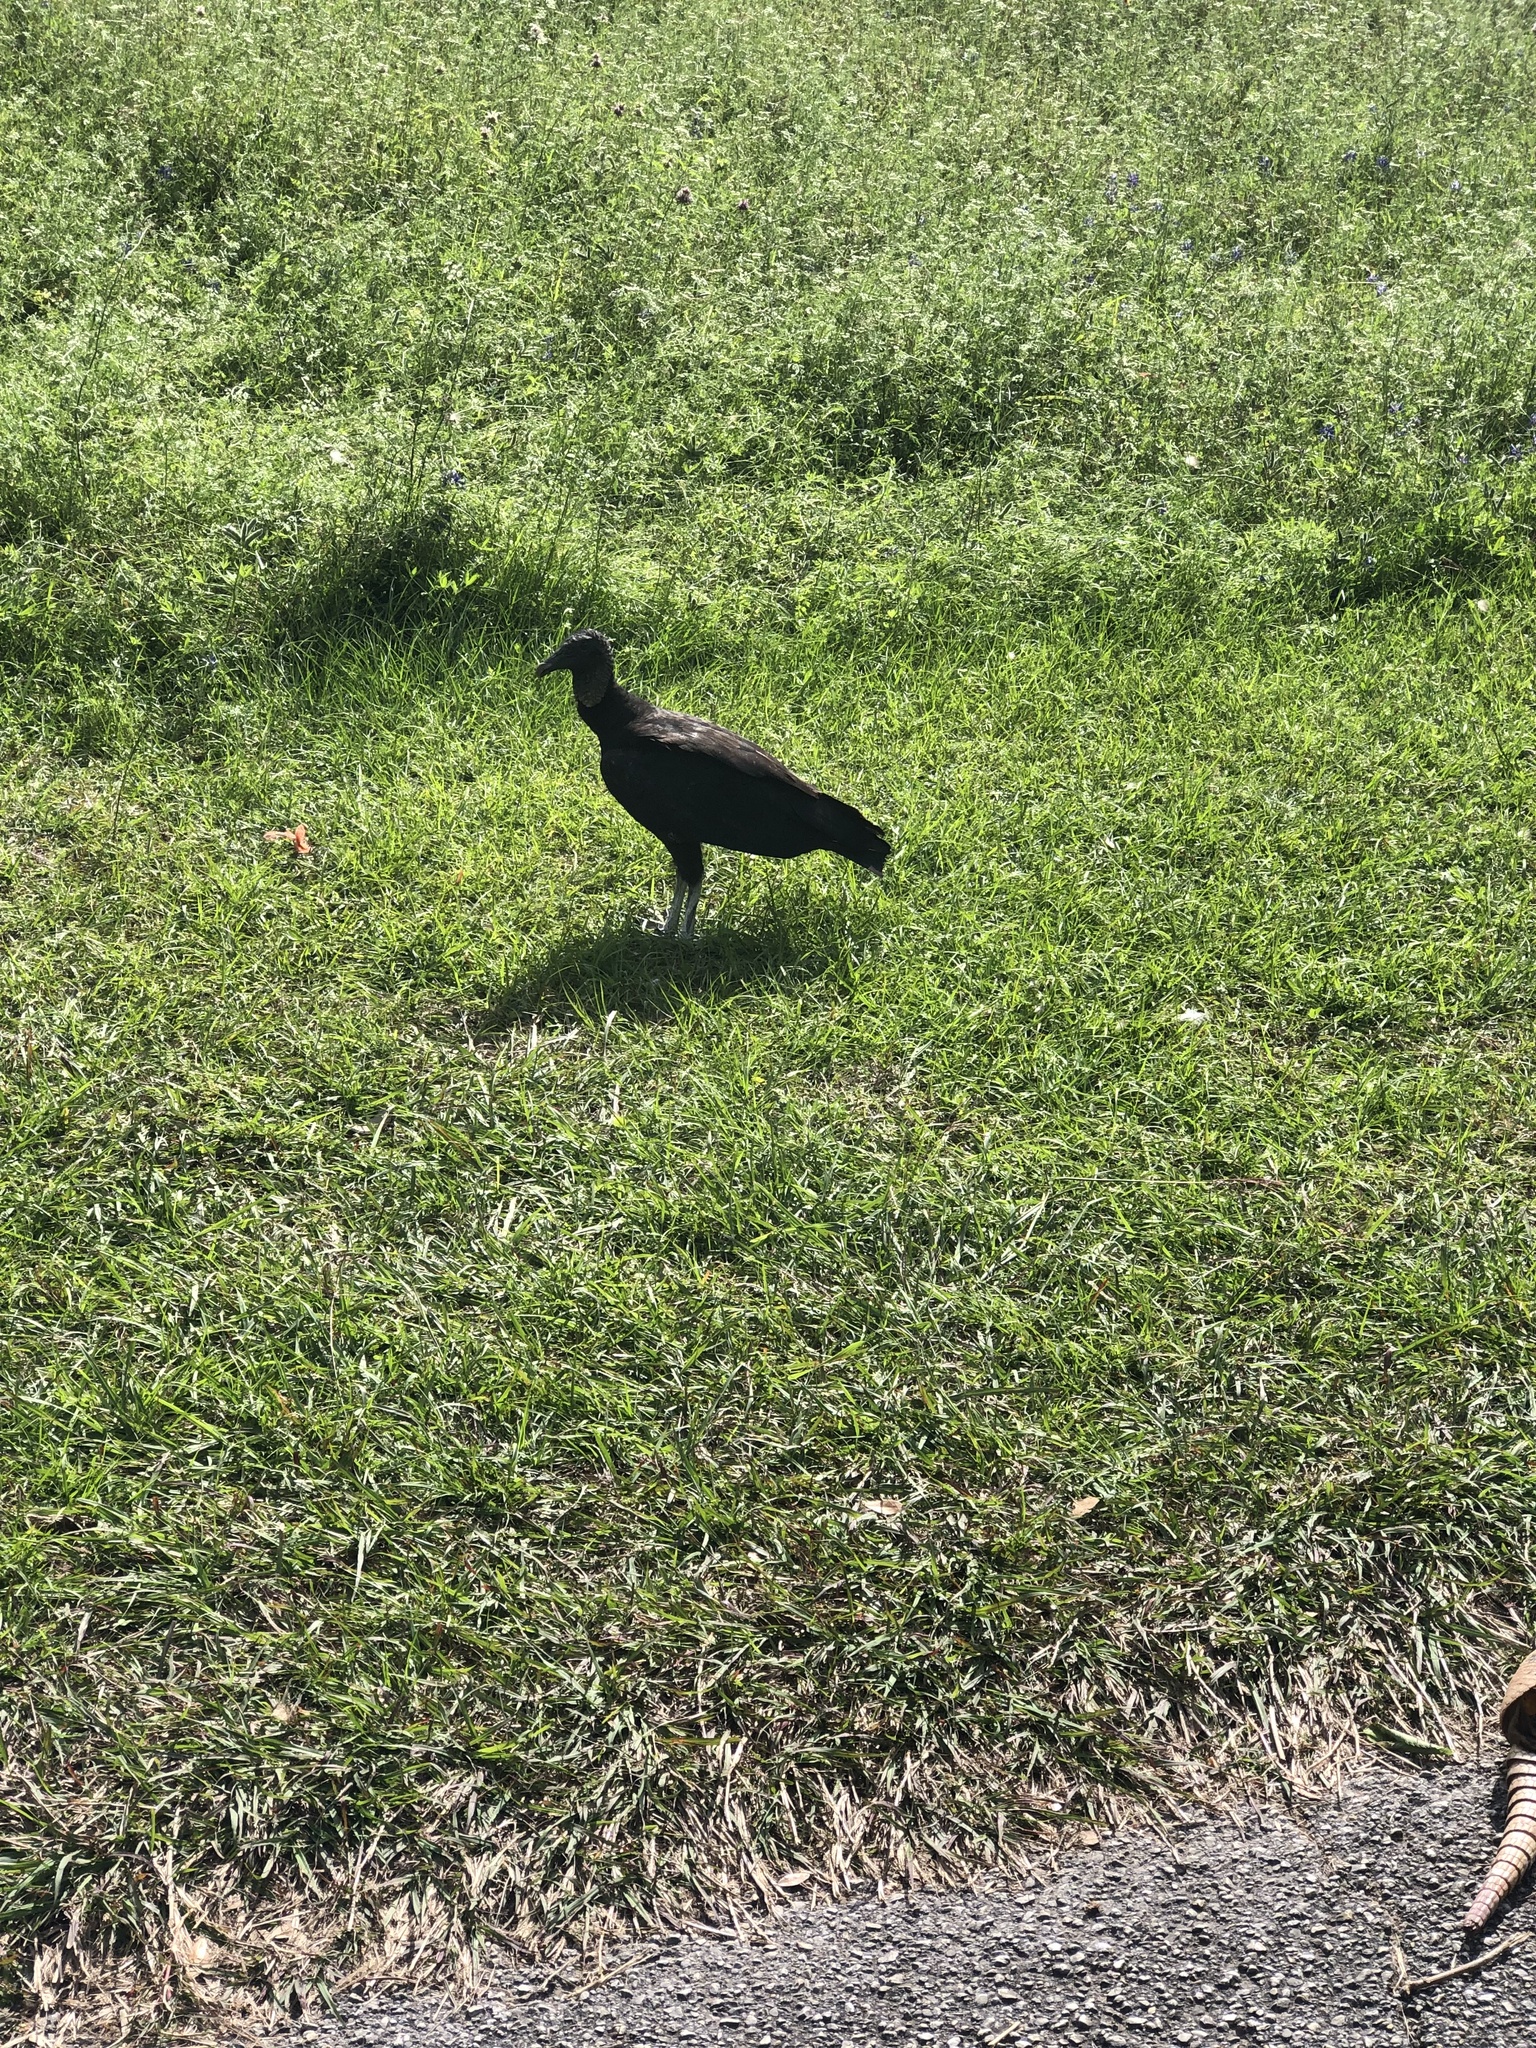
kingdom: Animalia
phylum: Chordata
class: Aves
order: Accipitriformes
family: Cathartidae
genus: Coragyps
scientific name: Coragyps atratus
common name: Black vulture
